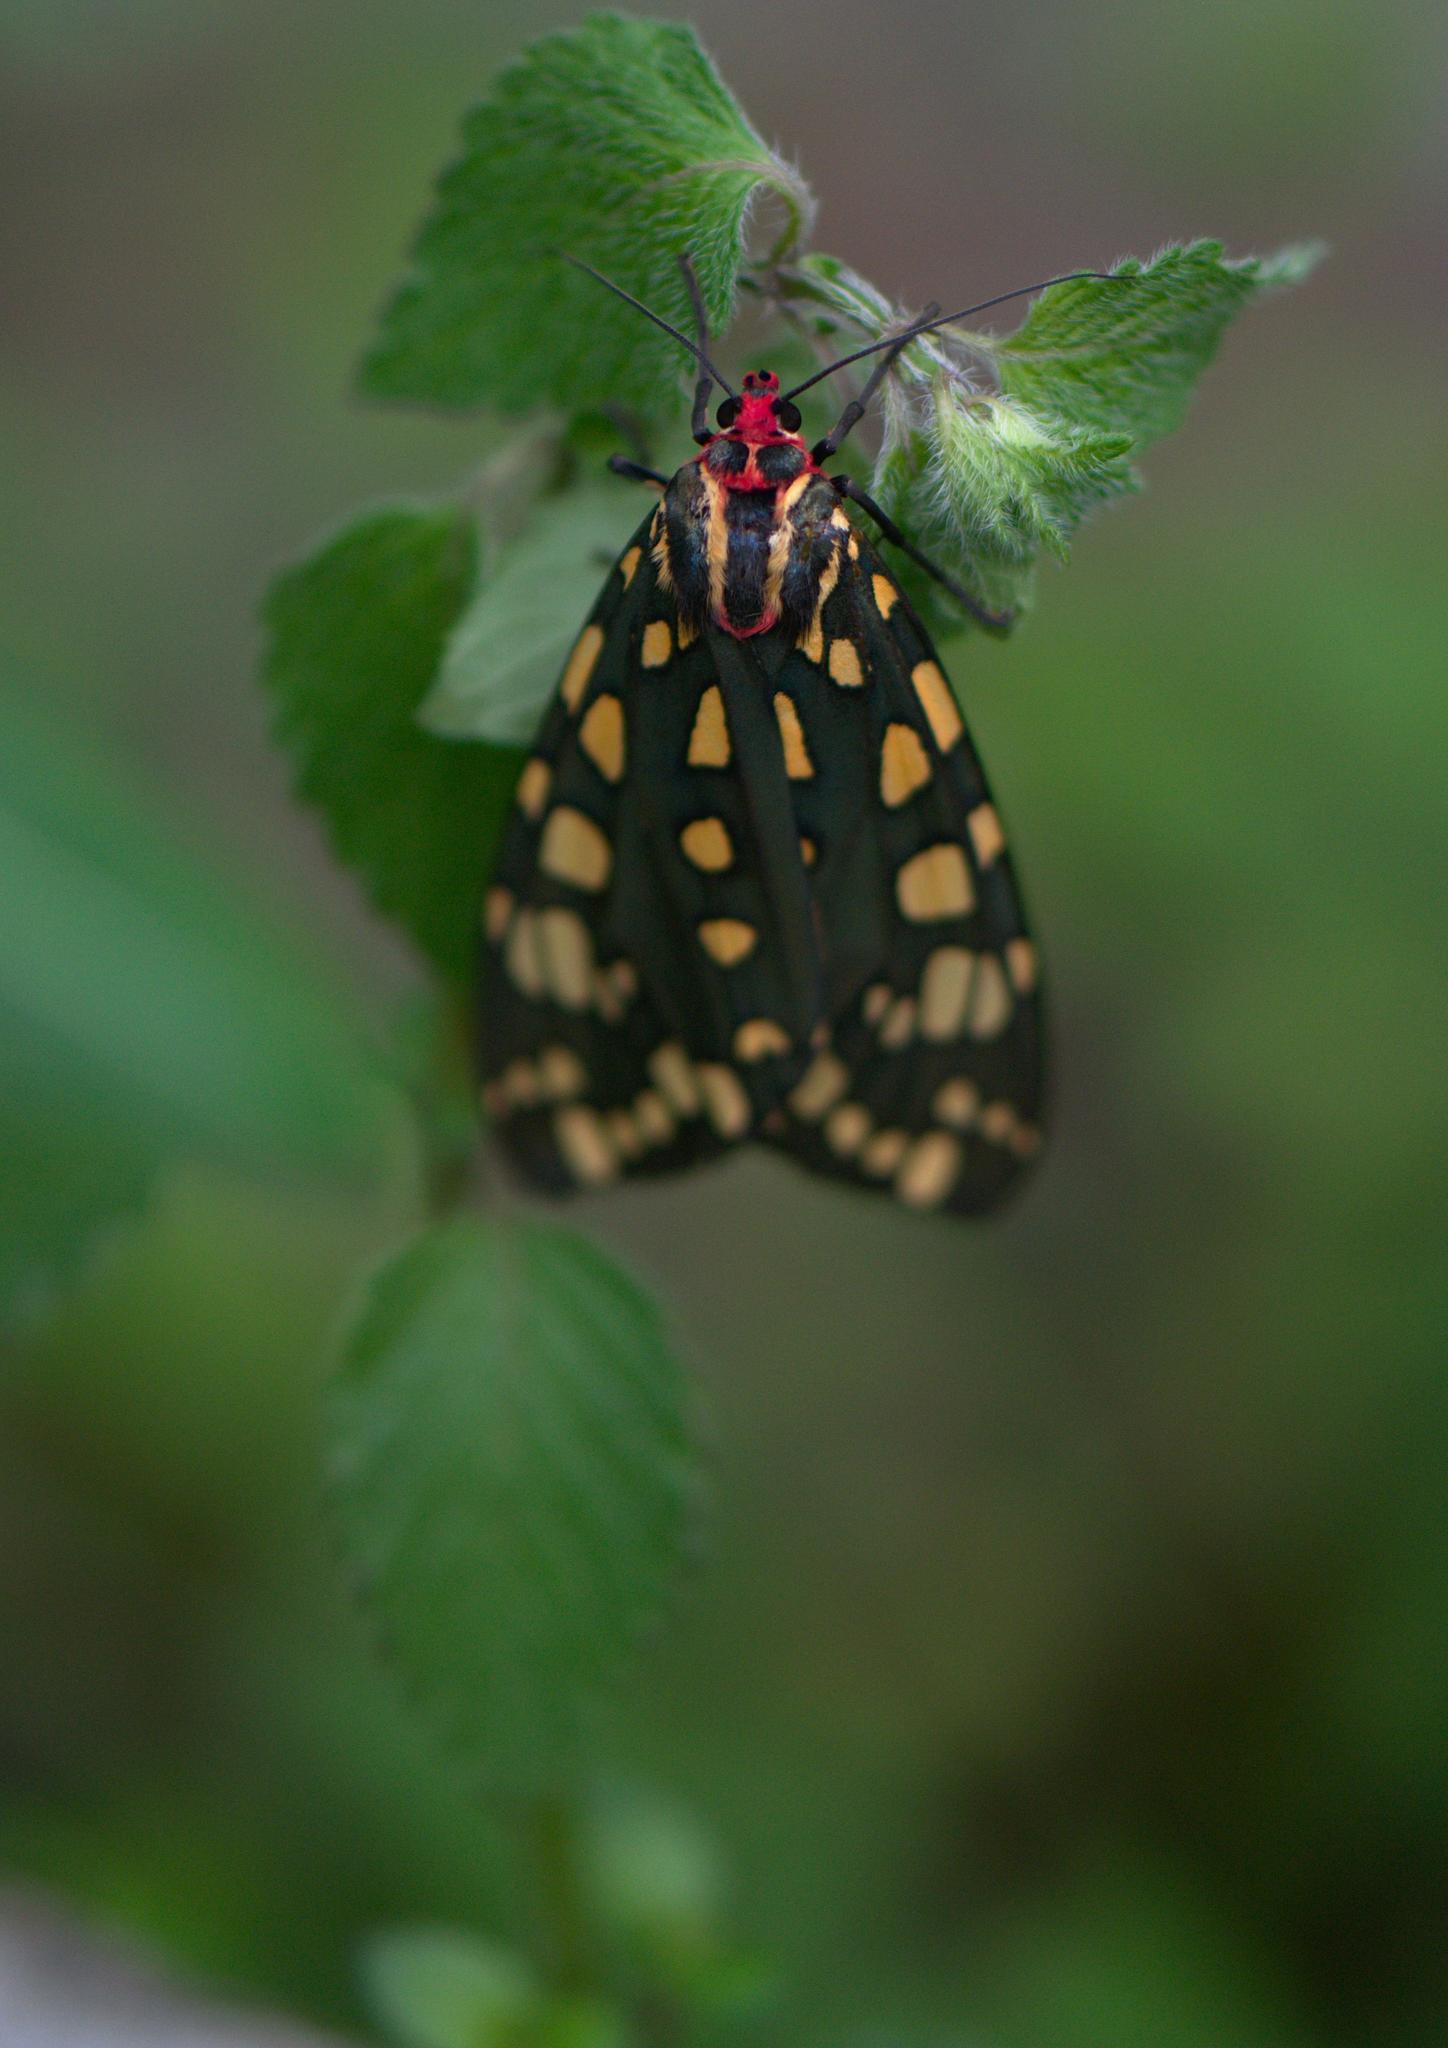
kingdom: Animalia
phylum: Arthropoda
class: Insecta
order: Lepidoptera
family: Erebidae
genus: Callindra
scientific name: Callindra principalis
